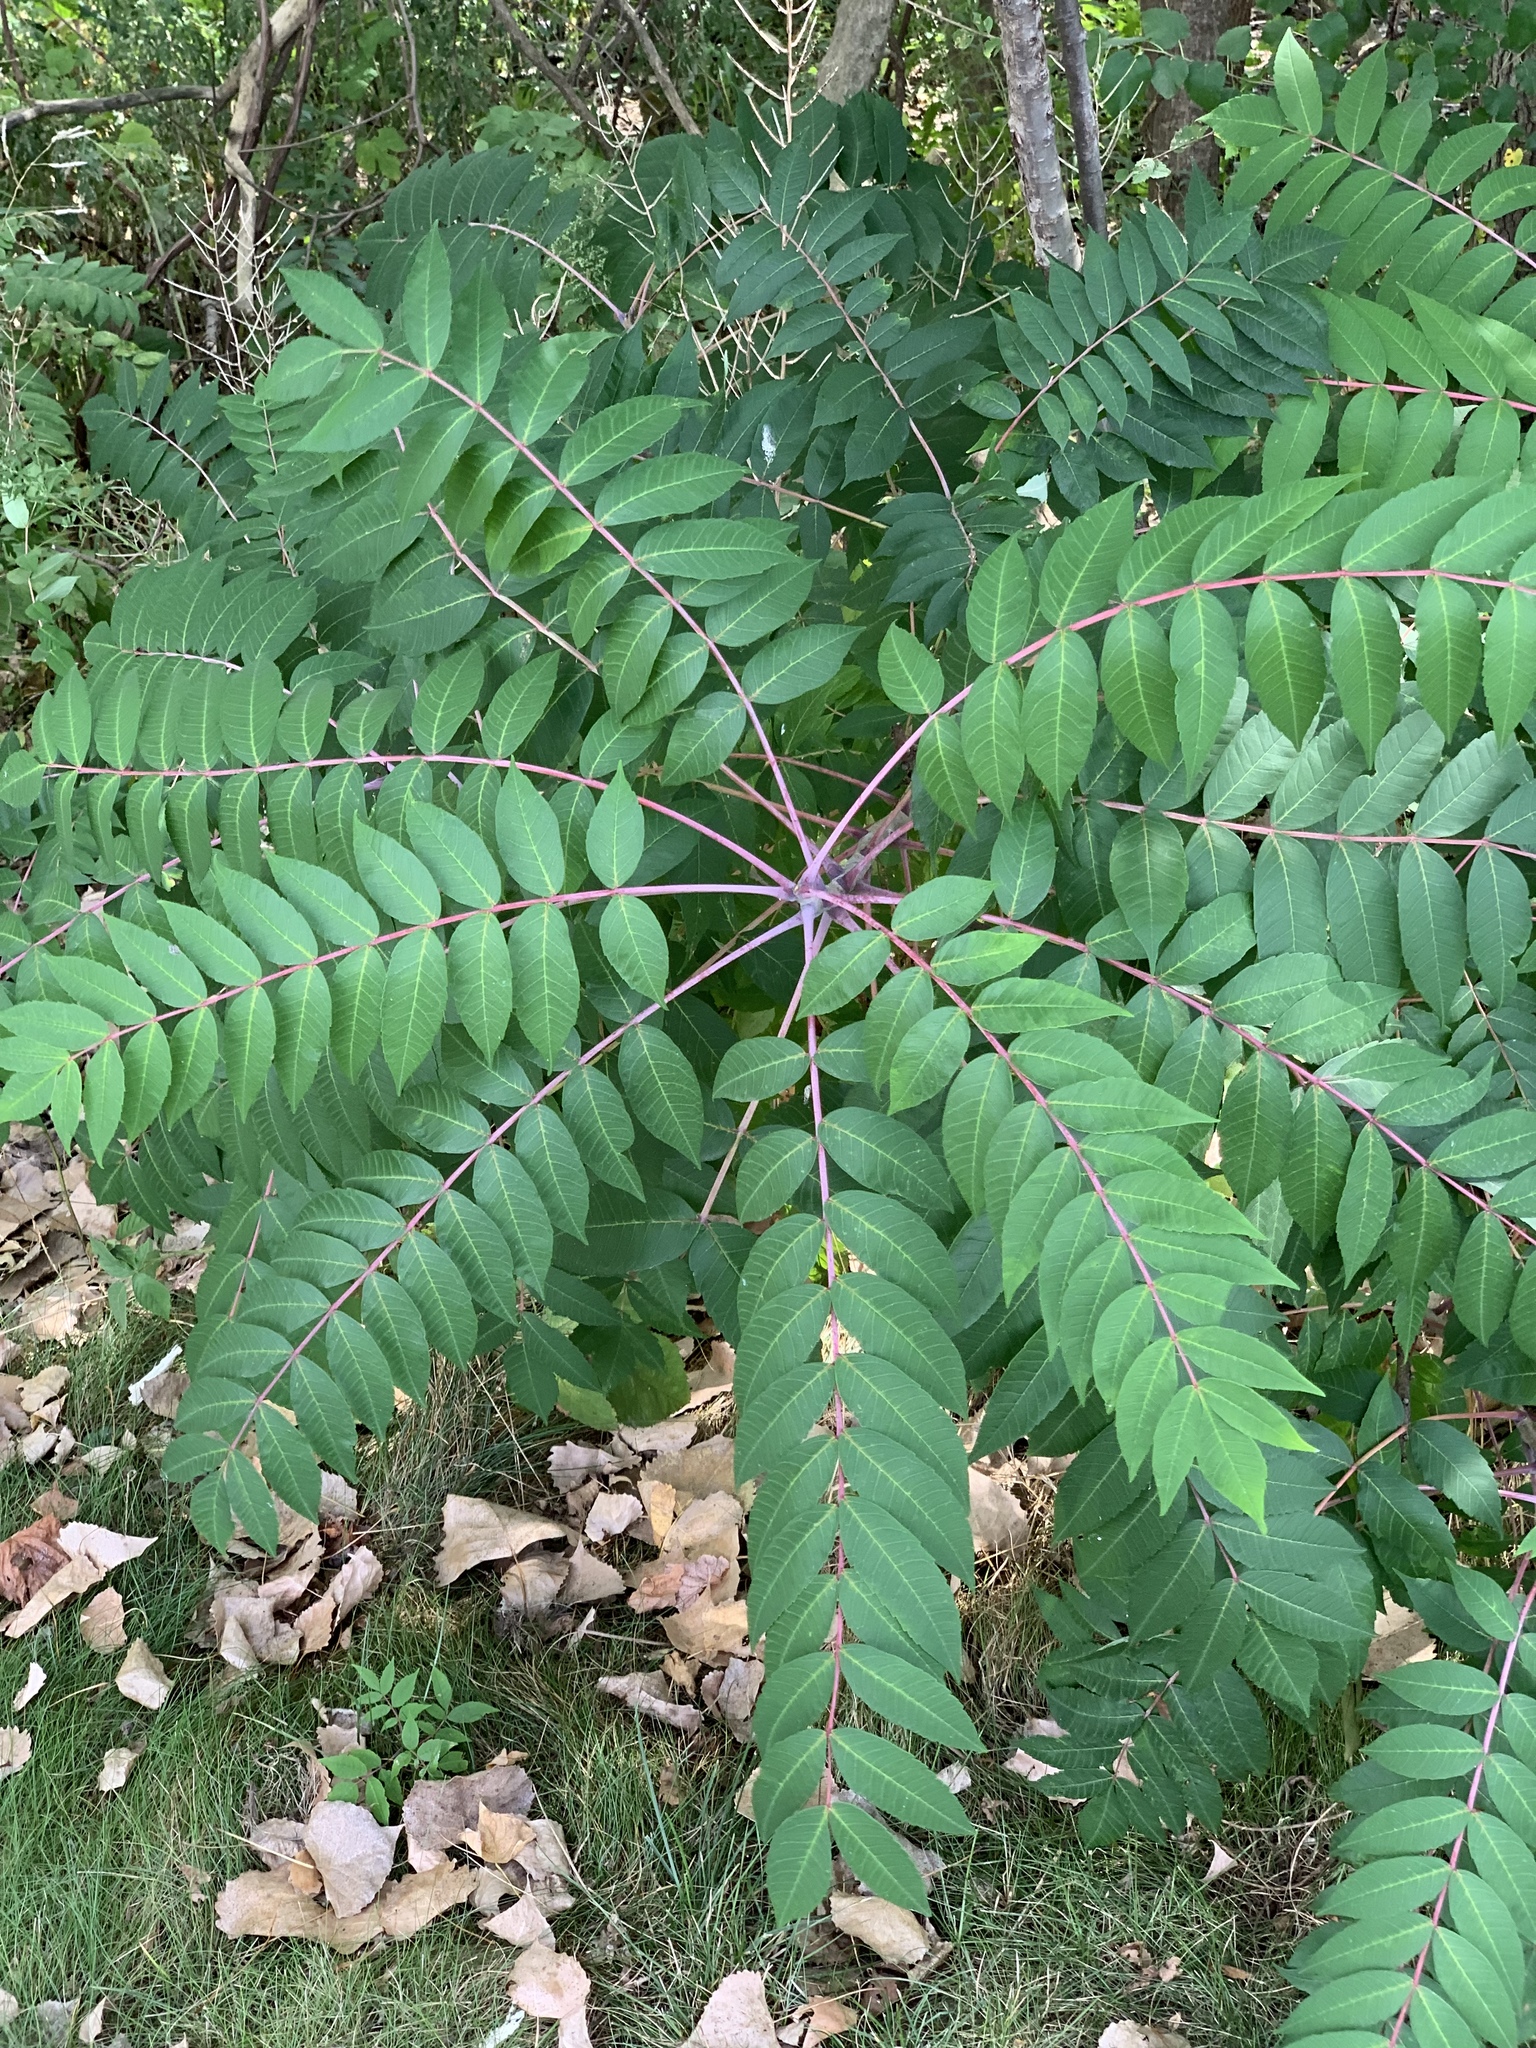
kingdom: Plantae
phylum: Tracheophyta
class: Magnoliopsida
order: Sapindales
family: Anacardiaceae
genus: Rhus
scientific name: Rhus glabra
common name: Scarlet sumac
